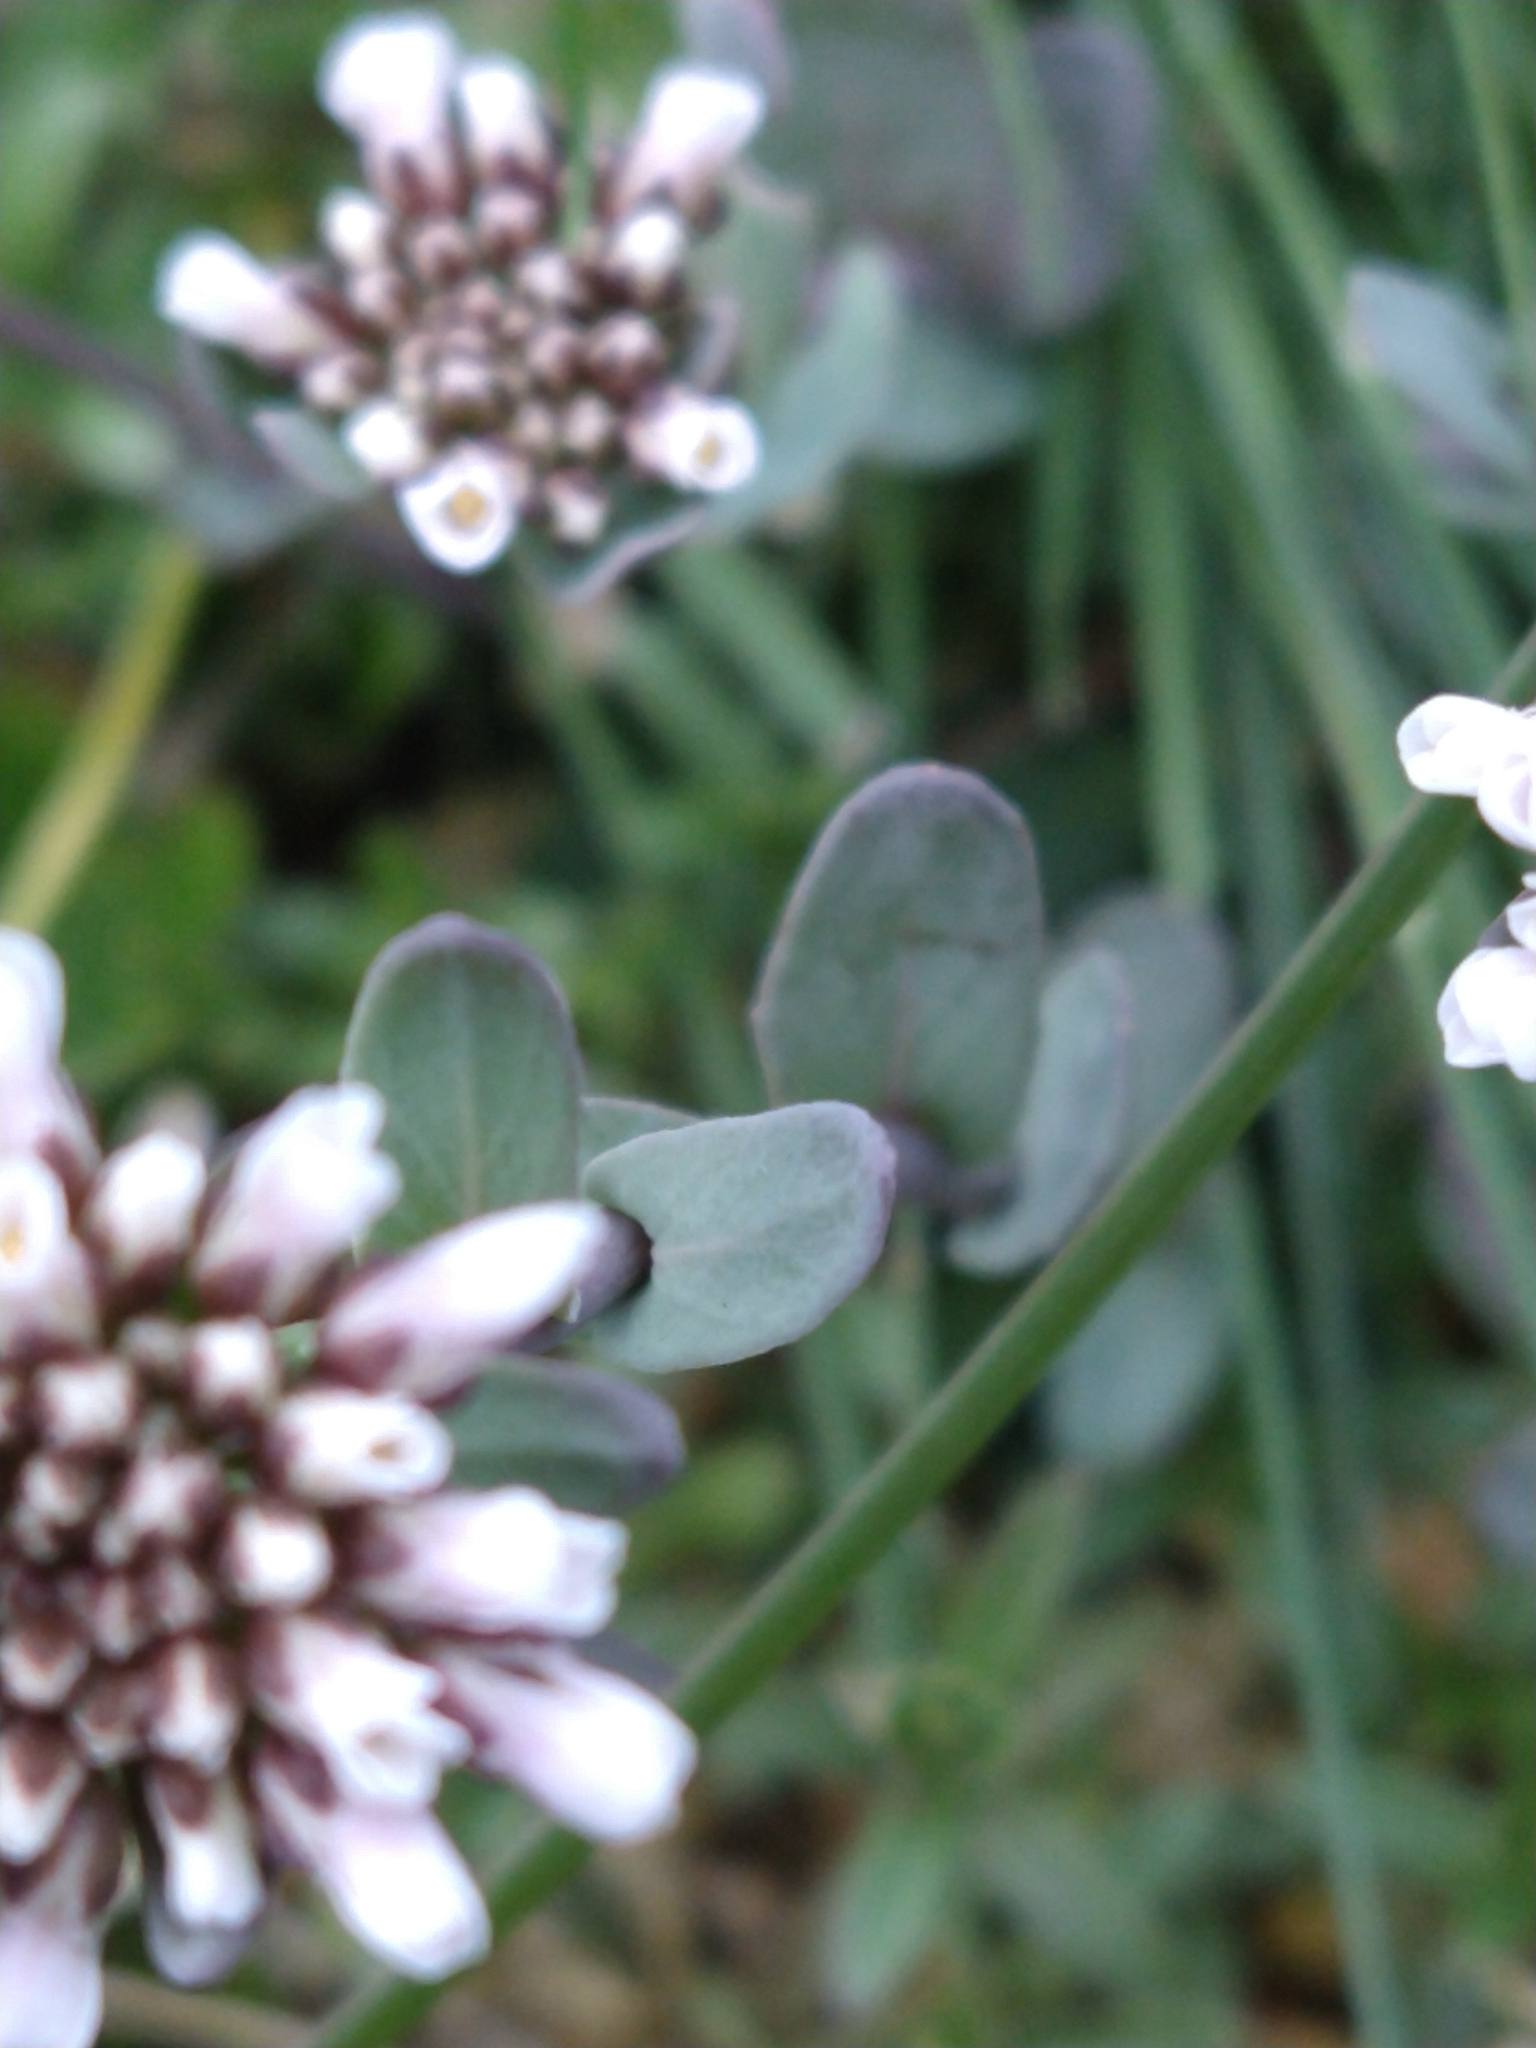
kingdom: Plantae
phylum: Tracheophyta
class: Magnoliopsida
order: Brassicales
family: Brassicaceae
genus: Noccaea
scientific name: Noccaea magellanica
